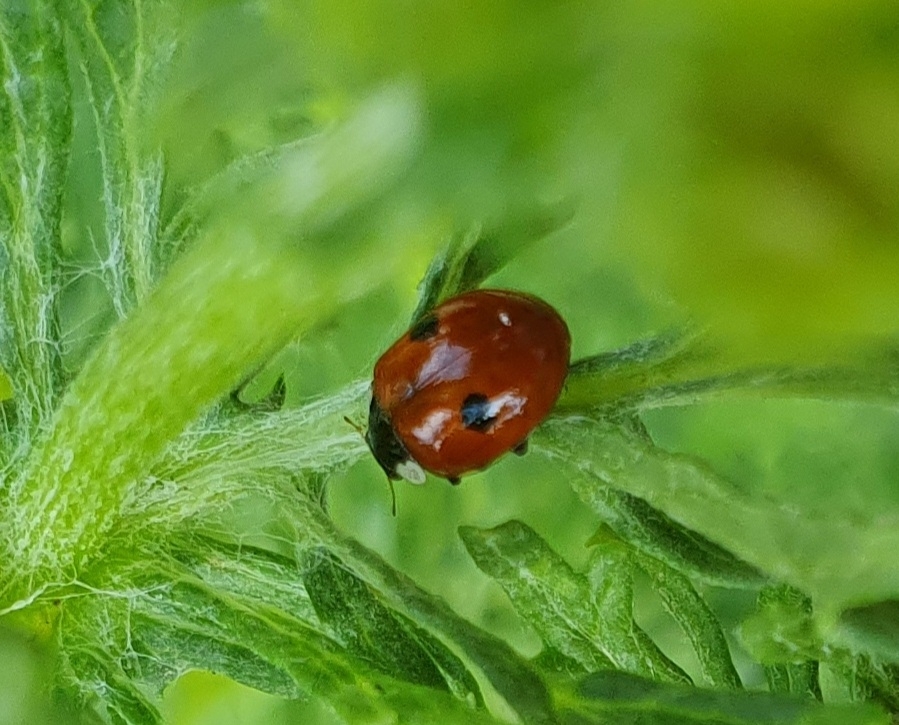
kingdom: Animalia
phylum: Arthropoda
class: Insecta
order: Coleoptera
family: Coccinellidae
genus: Adalia
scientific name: Adalia bipunctata
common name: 2-spot ladybird
